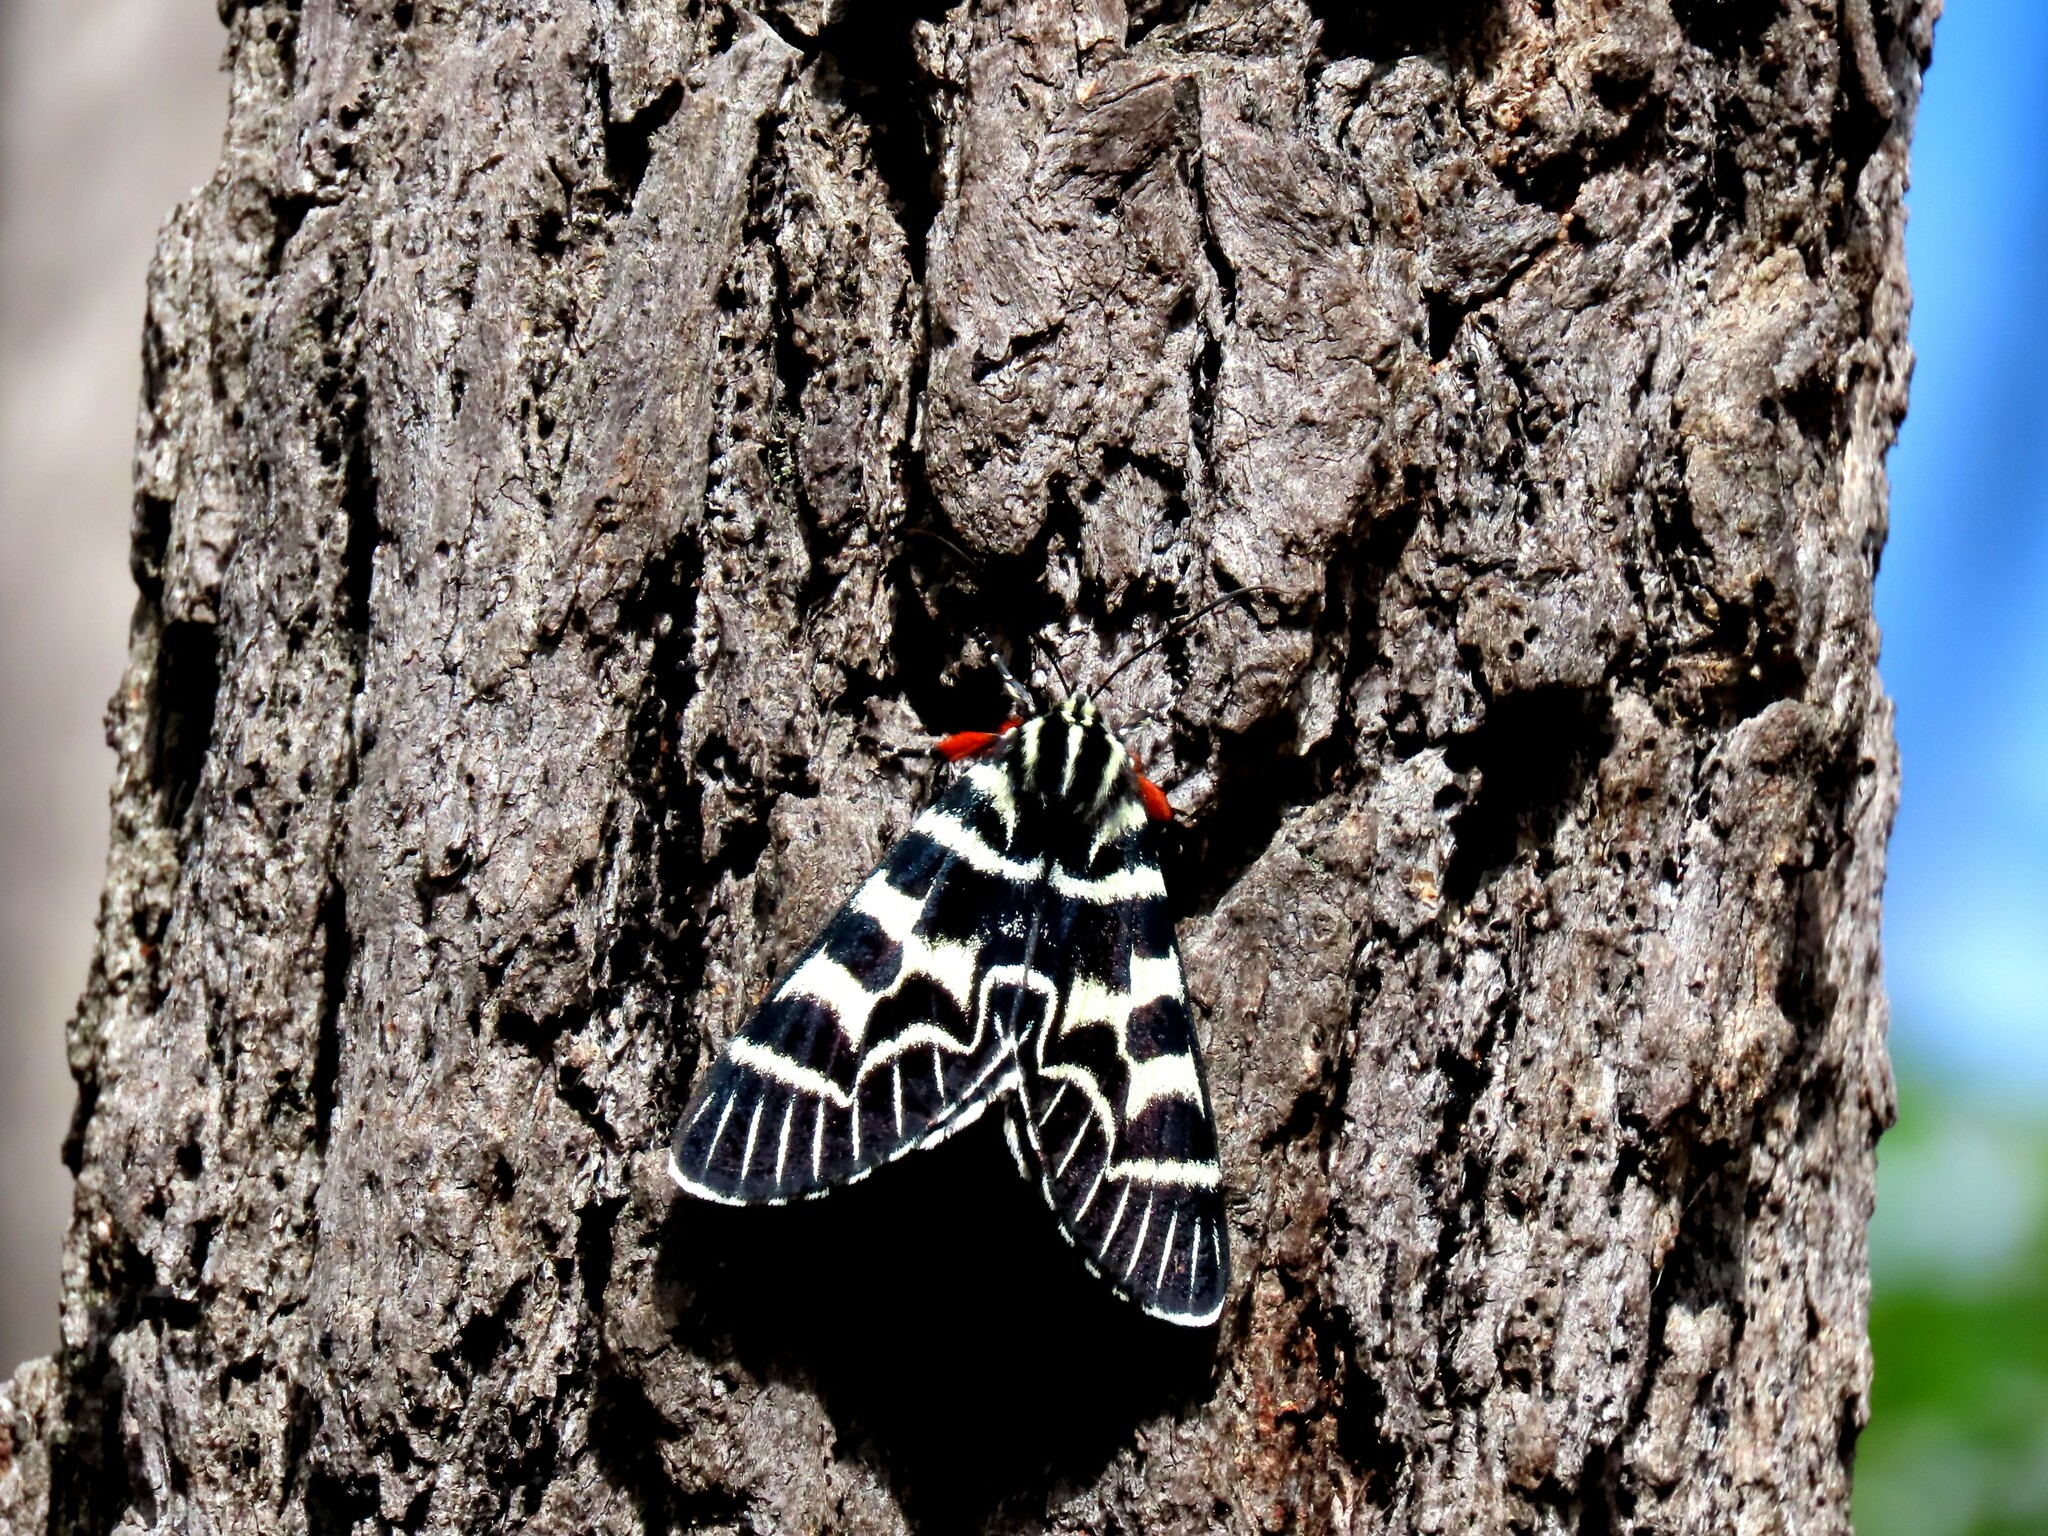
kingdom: Animalia
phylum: Arthropoda
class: Insecta
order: Lepidoptera
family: Noctuidae
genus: Comocrus
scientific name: Comocrus behri
